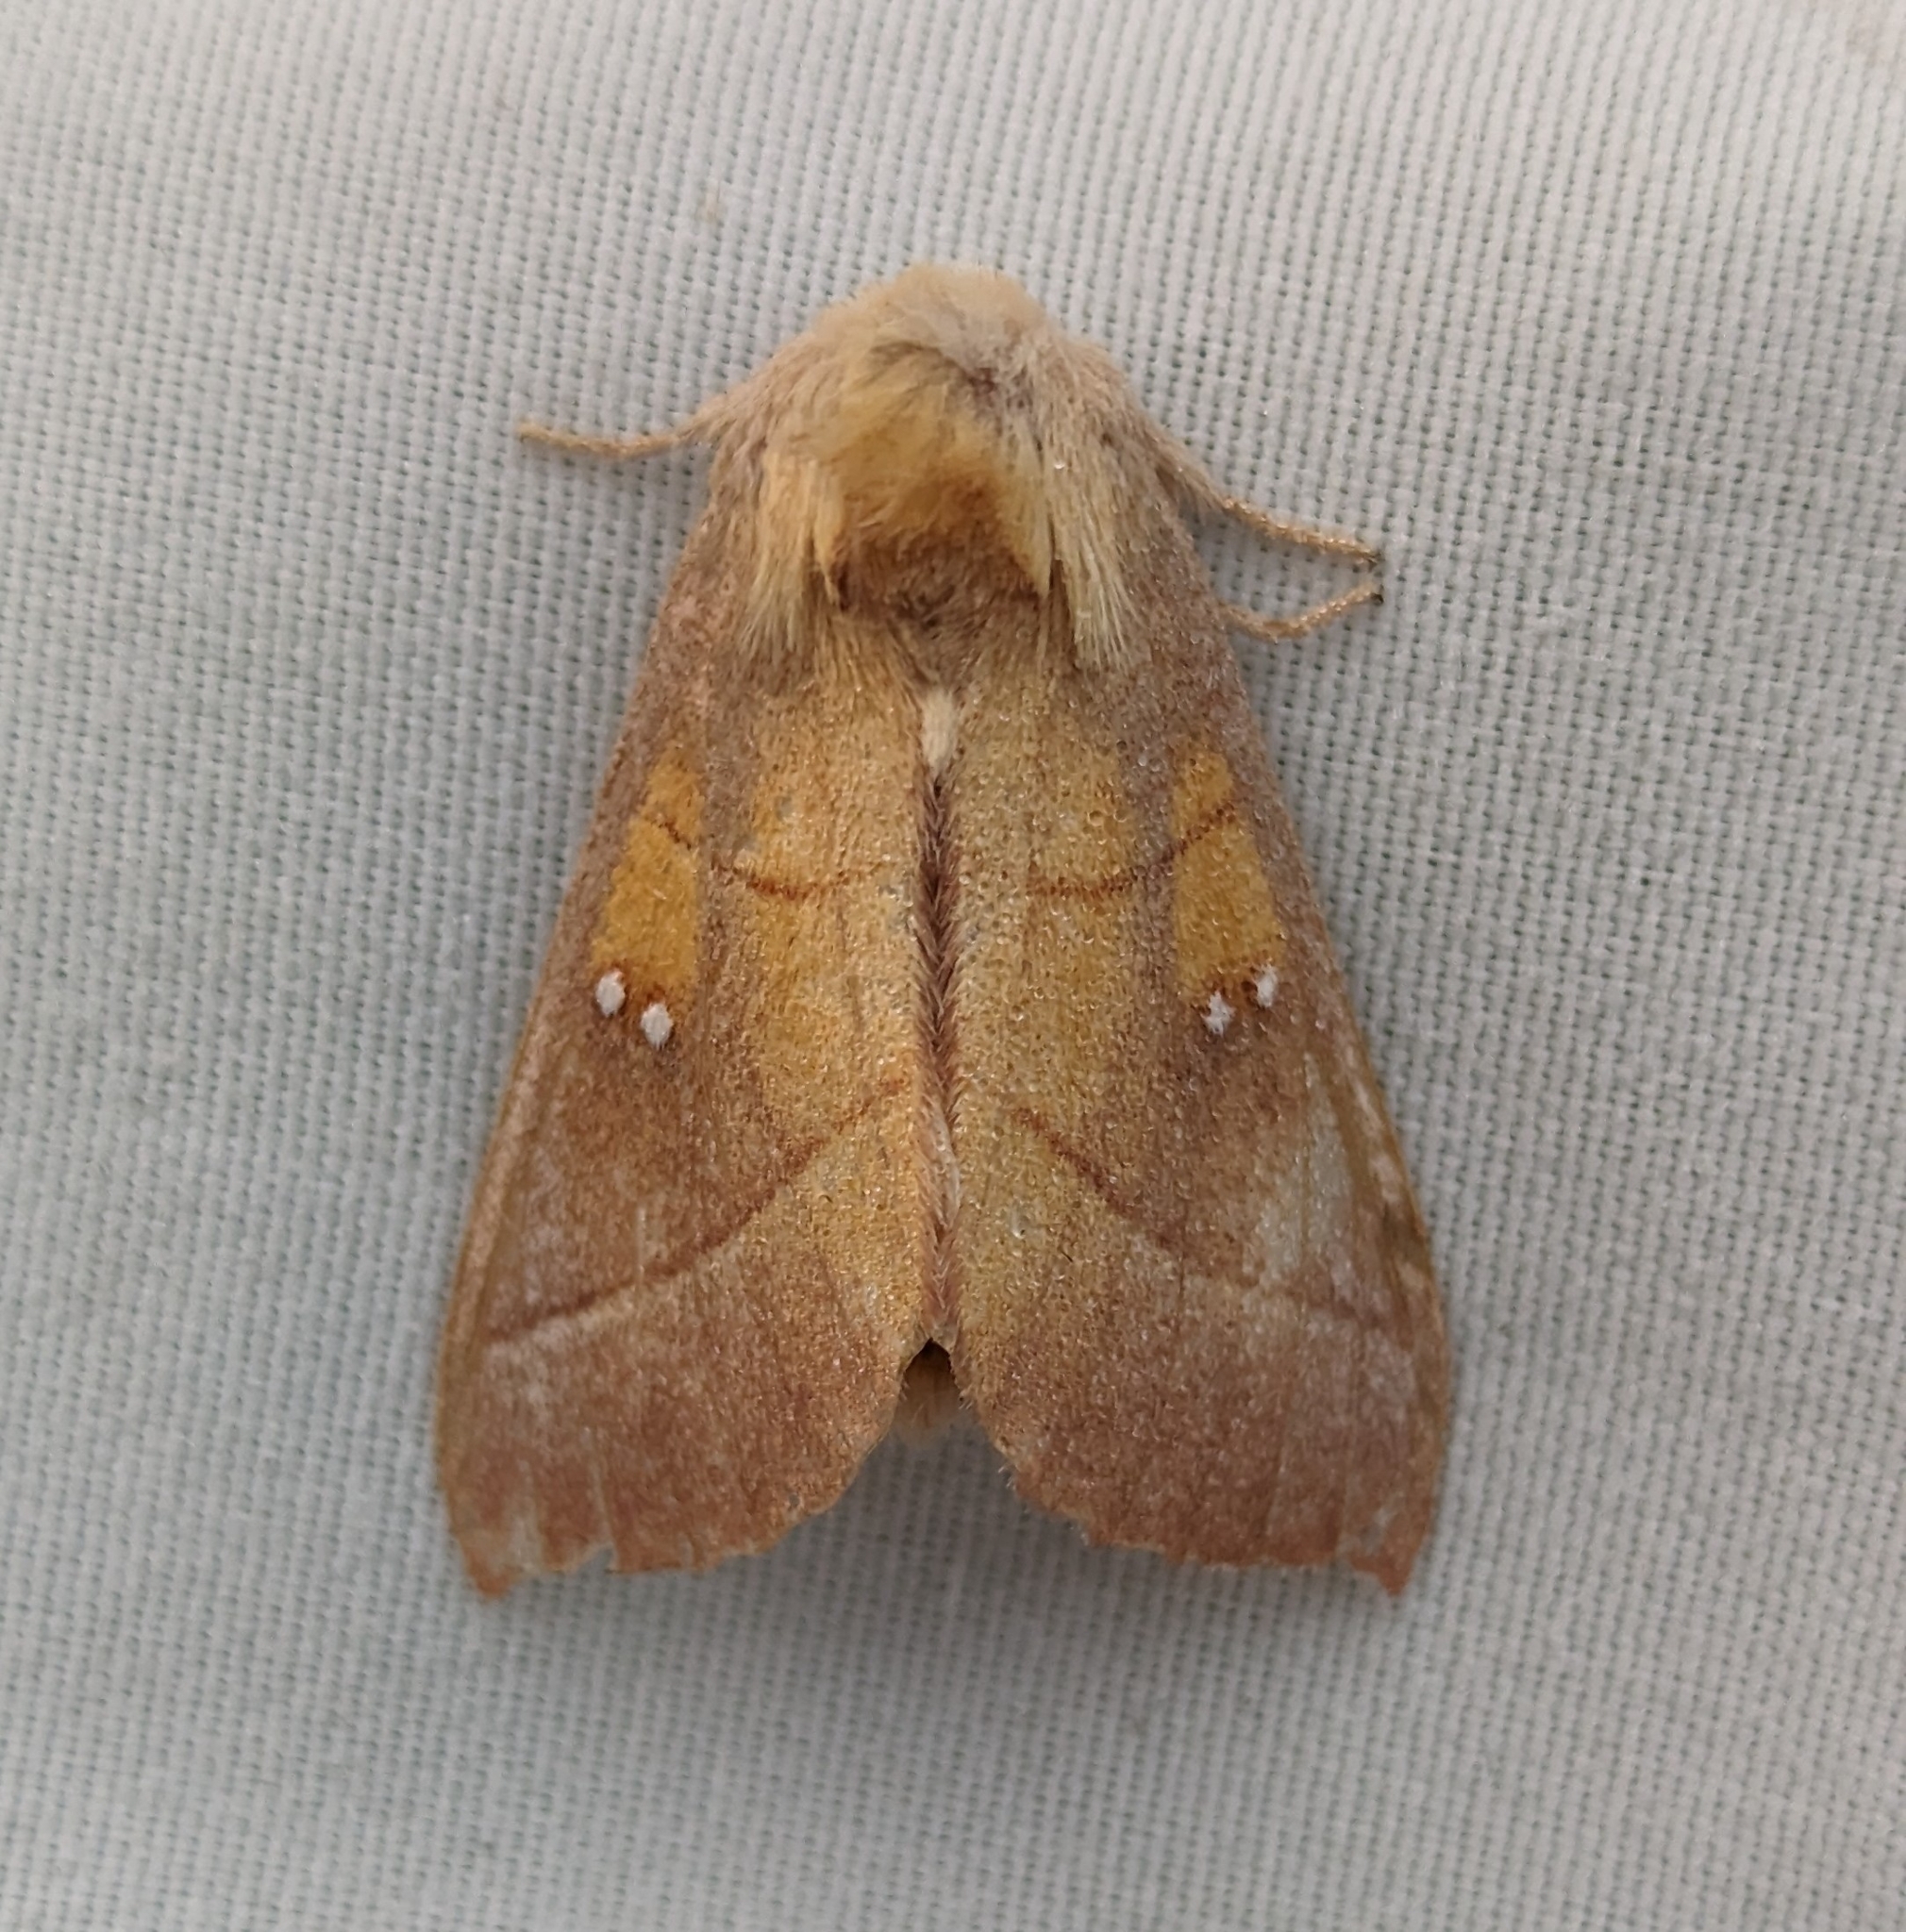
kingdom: Animalia
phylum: Arthropoda
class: Insecta
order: Lepidoptera
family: Notodontidae
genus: Nadata
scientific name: Nadata gibbosa
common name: White-dotted prominent
